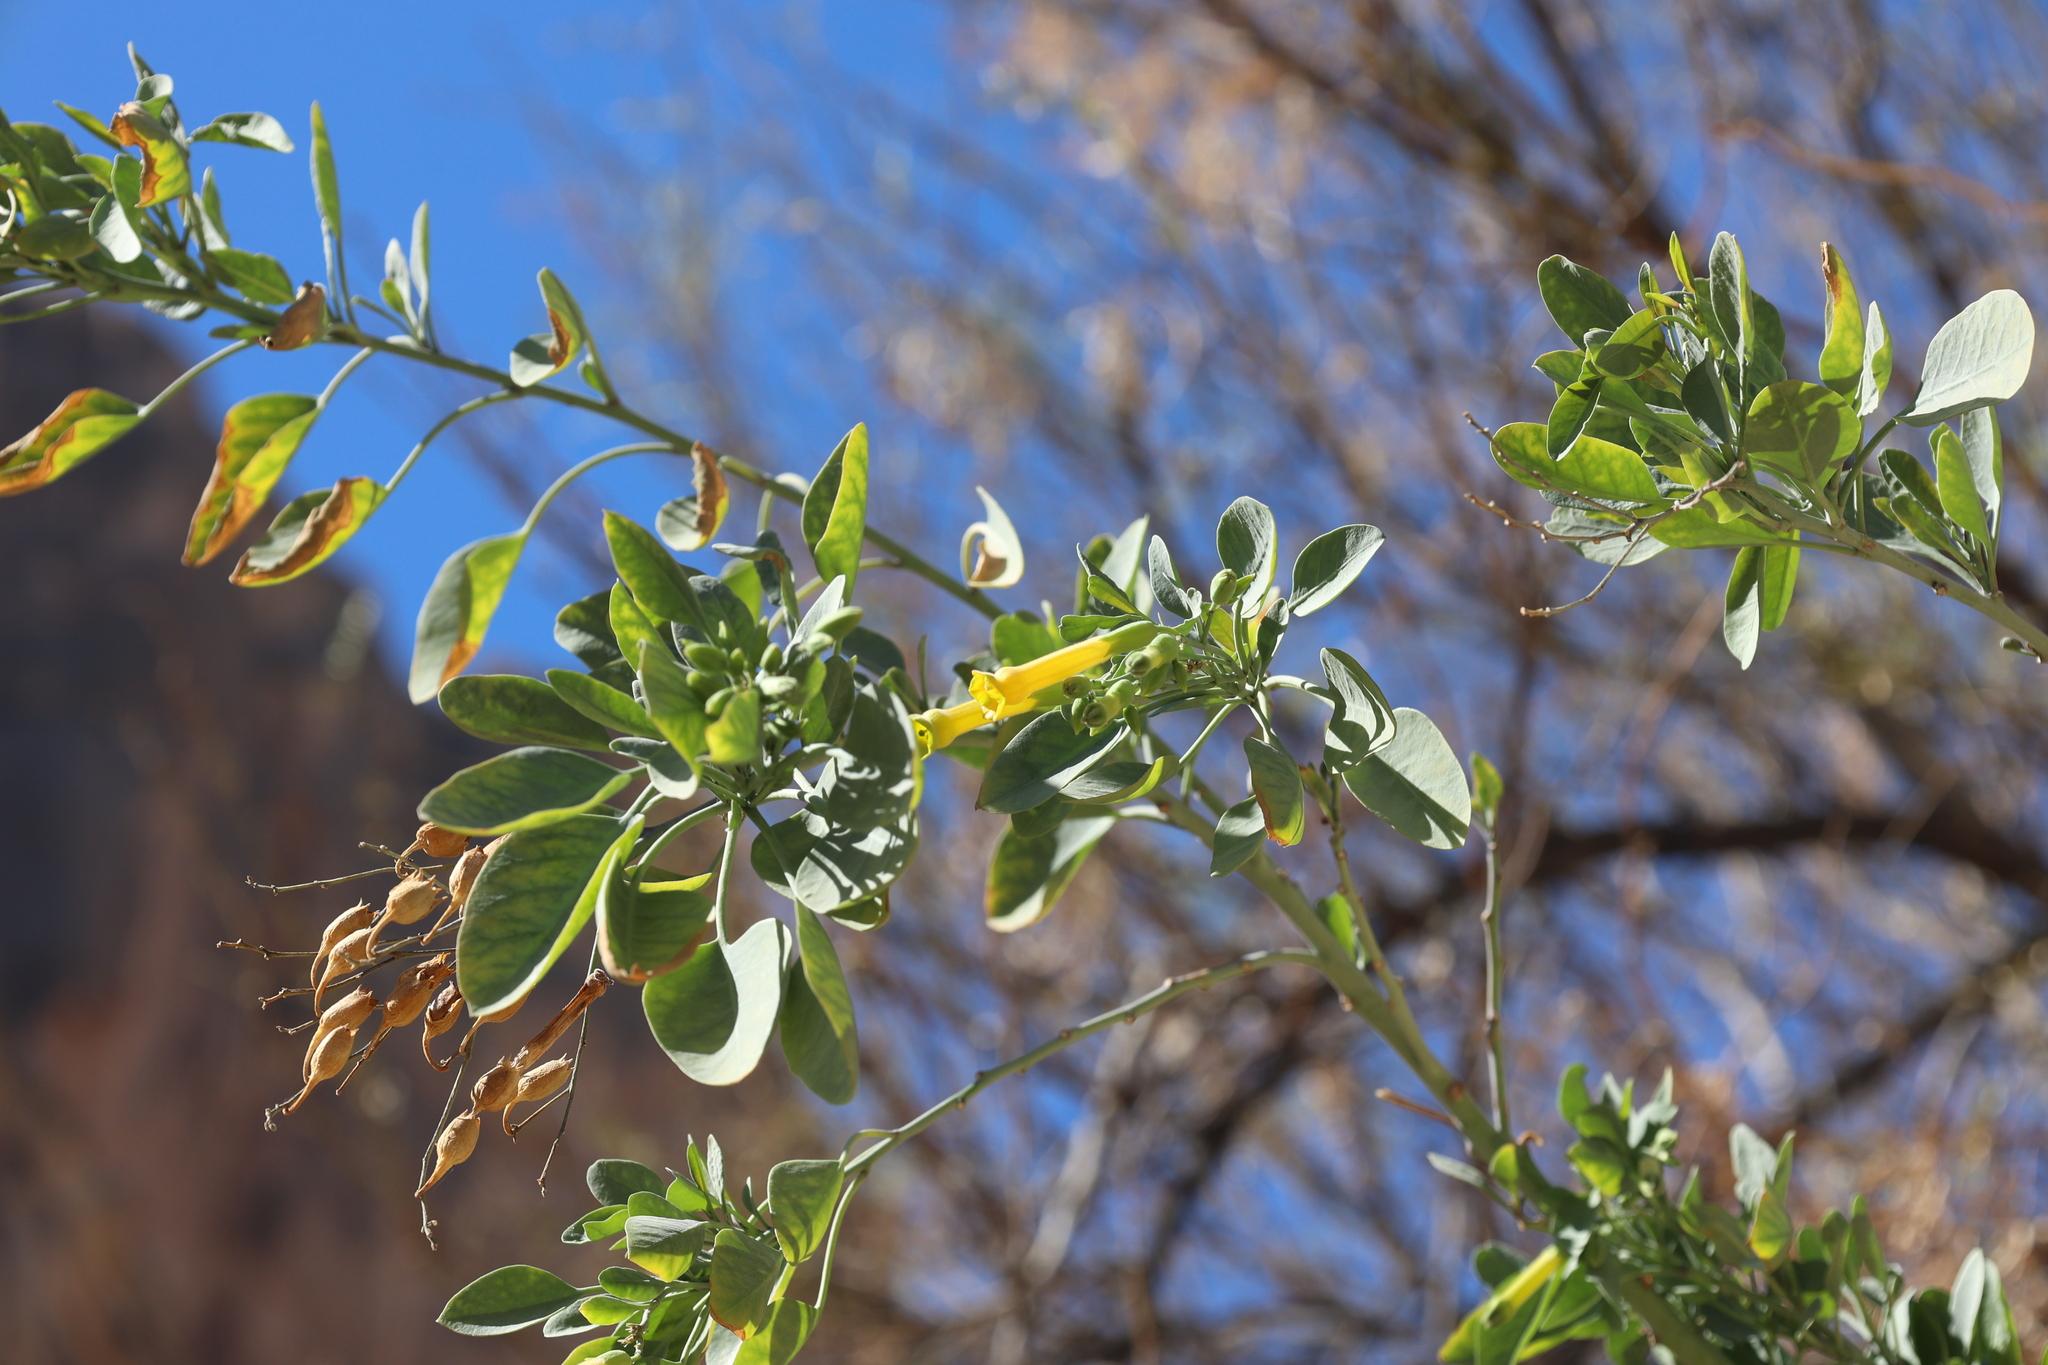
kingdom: Plantae
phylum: Tracheophyta
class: Magnoliopsida
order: Solanales
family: Solanaceae
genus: Nicotiana
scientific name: Nicotiana glauca
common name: Tree tobacco
